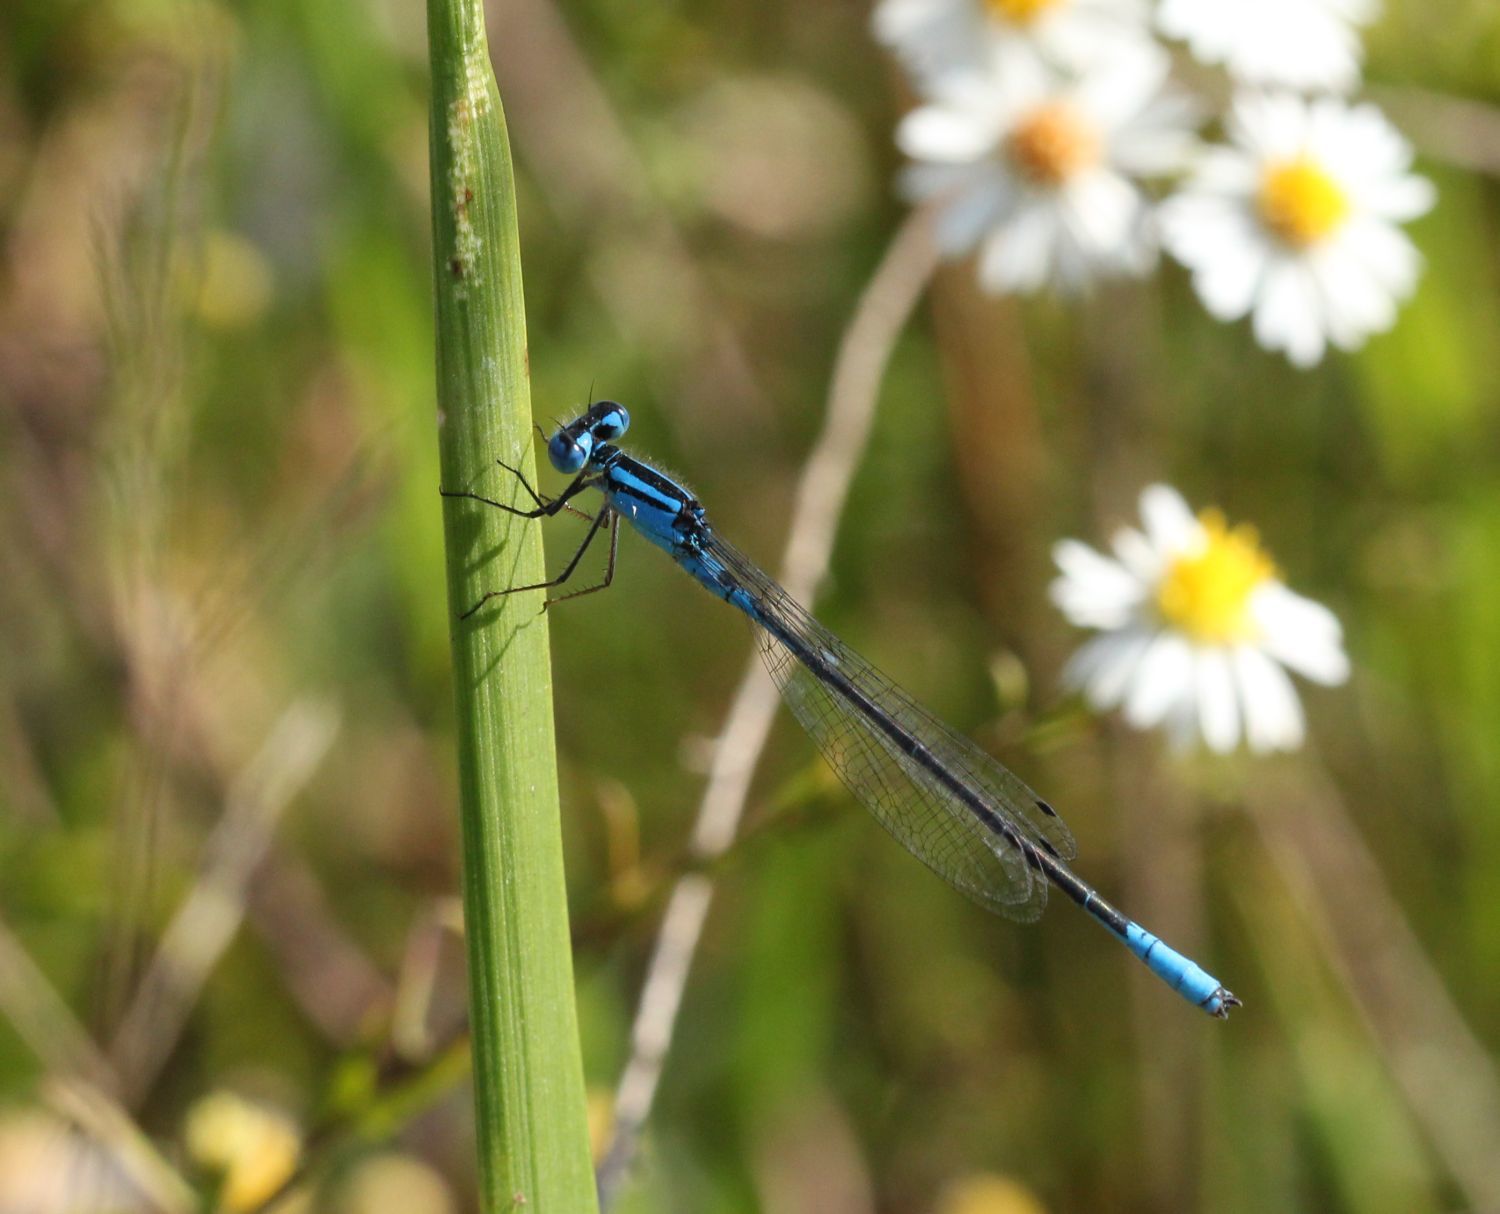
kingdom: Animalia
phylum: Arthropoda
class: Insecta
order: Odonata
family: Coenagrionidae
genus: Enallagma
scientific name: Enallagma aspersum
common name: Azure bluet
